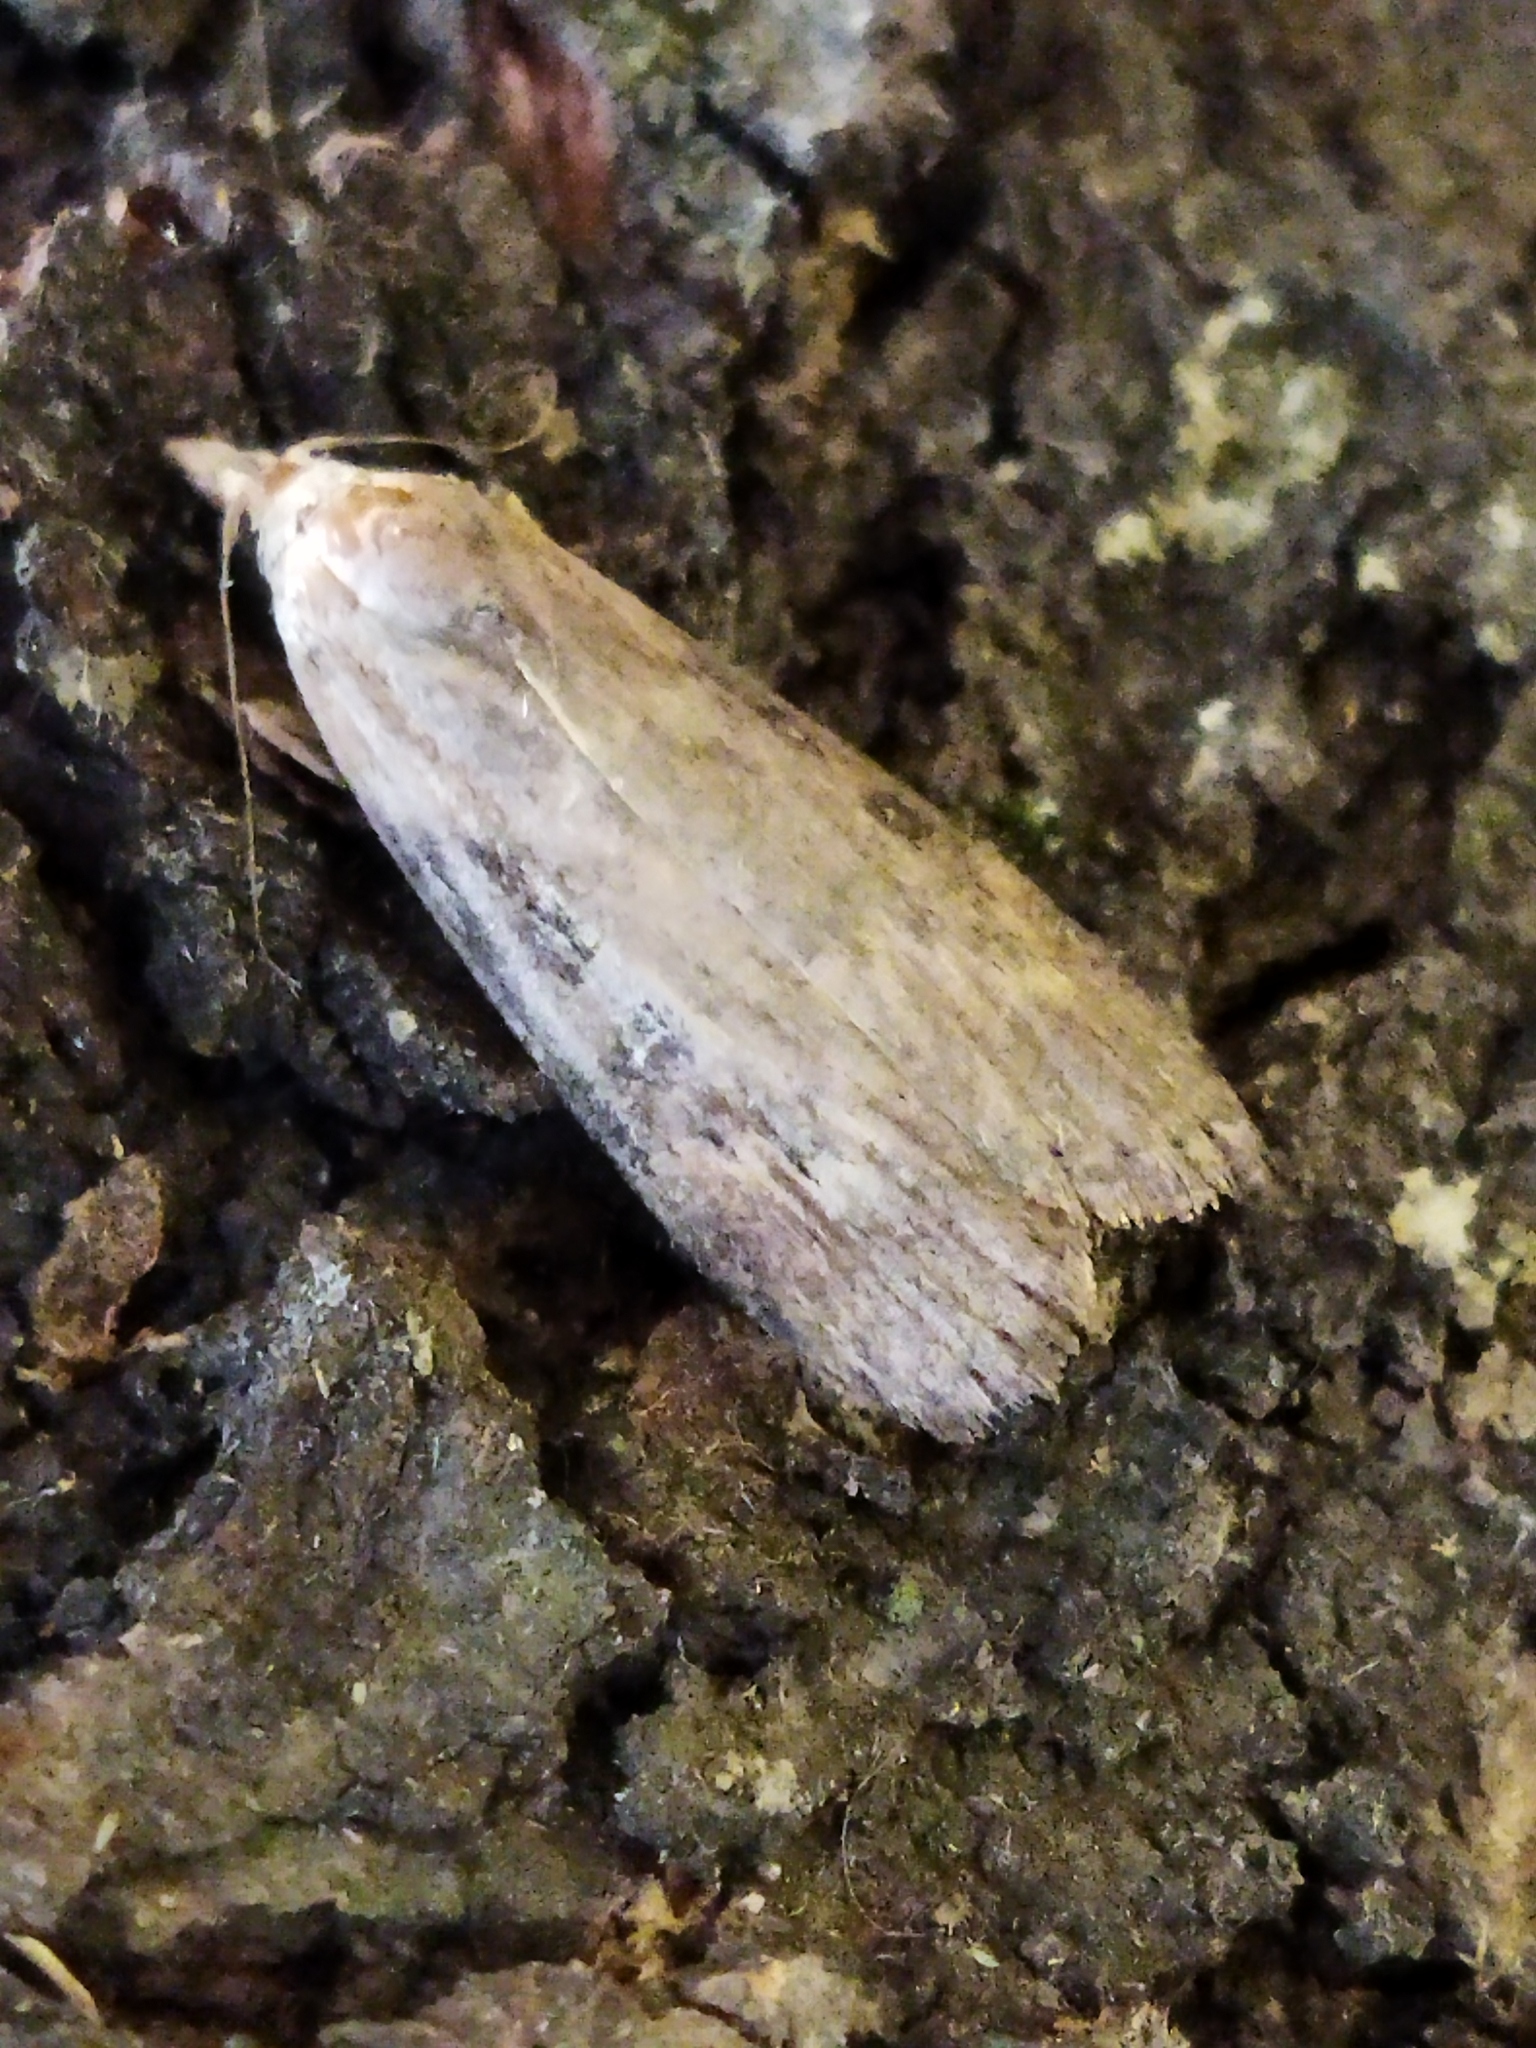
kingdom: Animalia
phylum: Arthropoda
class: Insecta
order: Lepidoptera
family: Pyralidae
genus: Lamoria
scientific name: Lamoria anella
